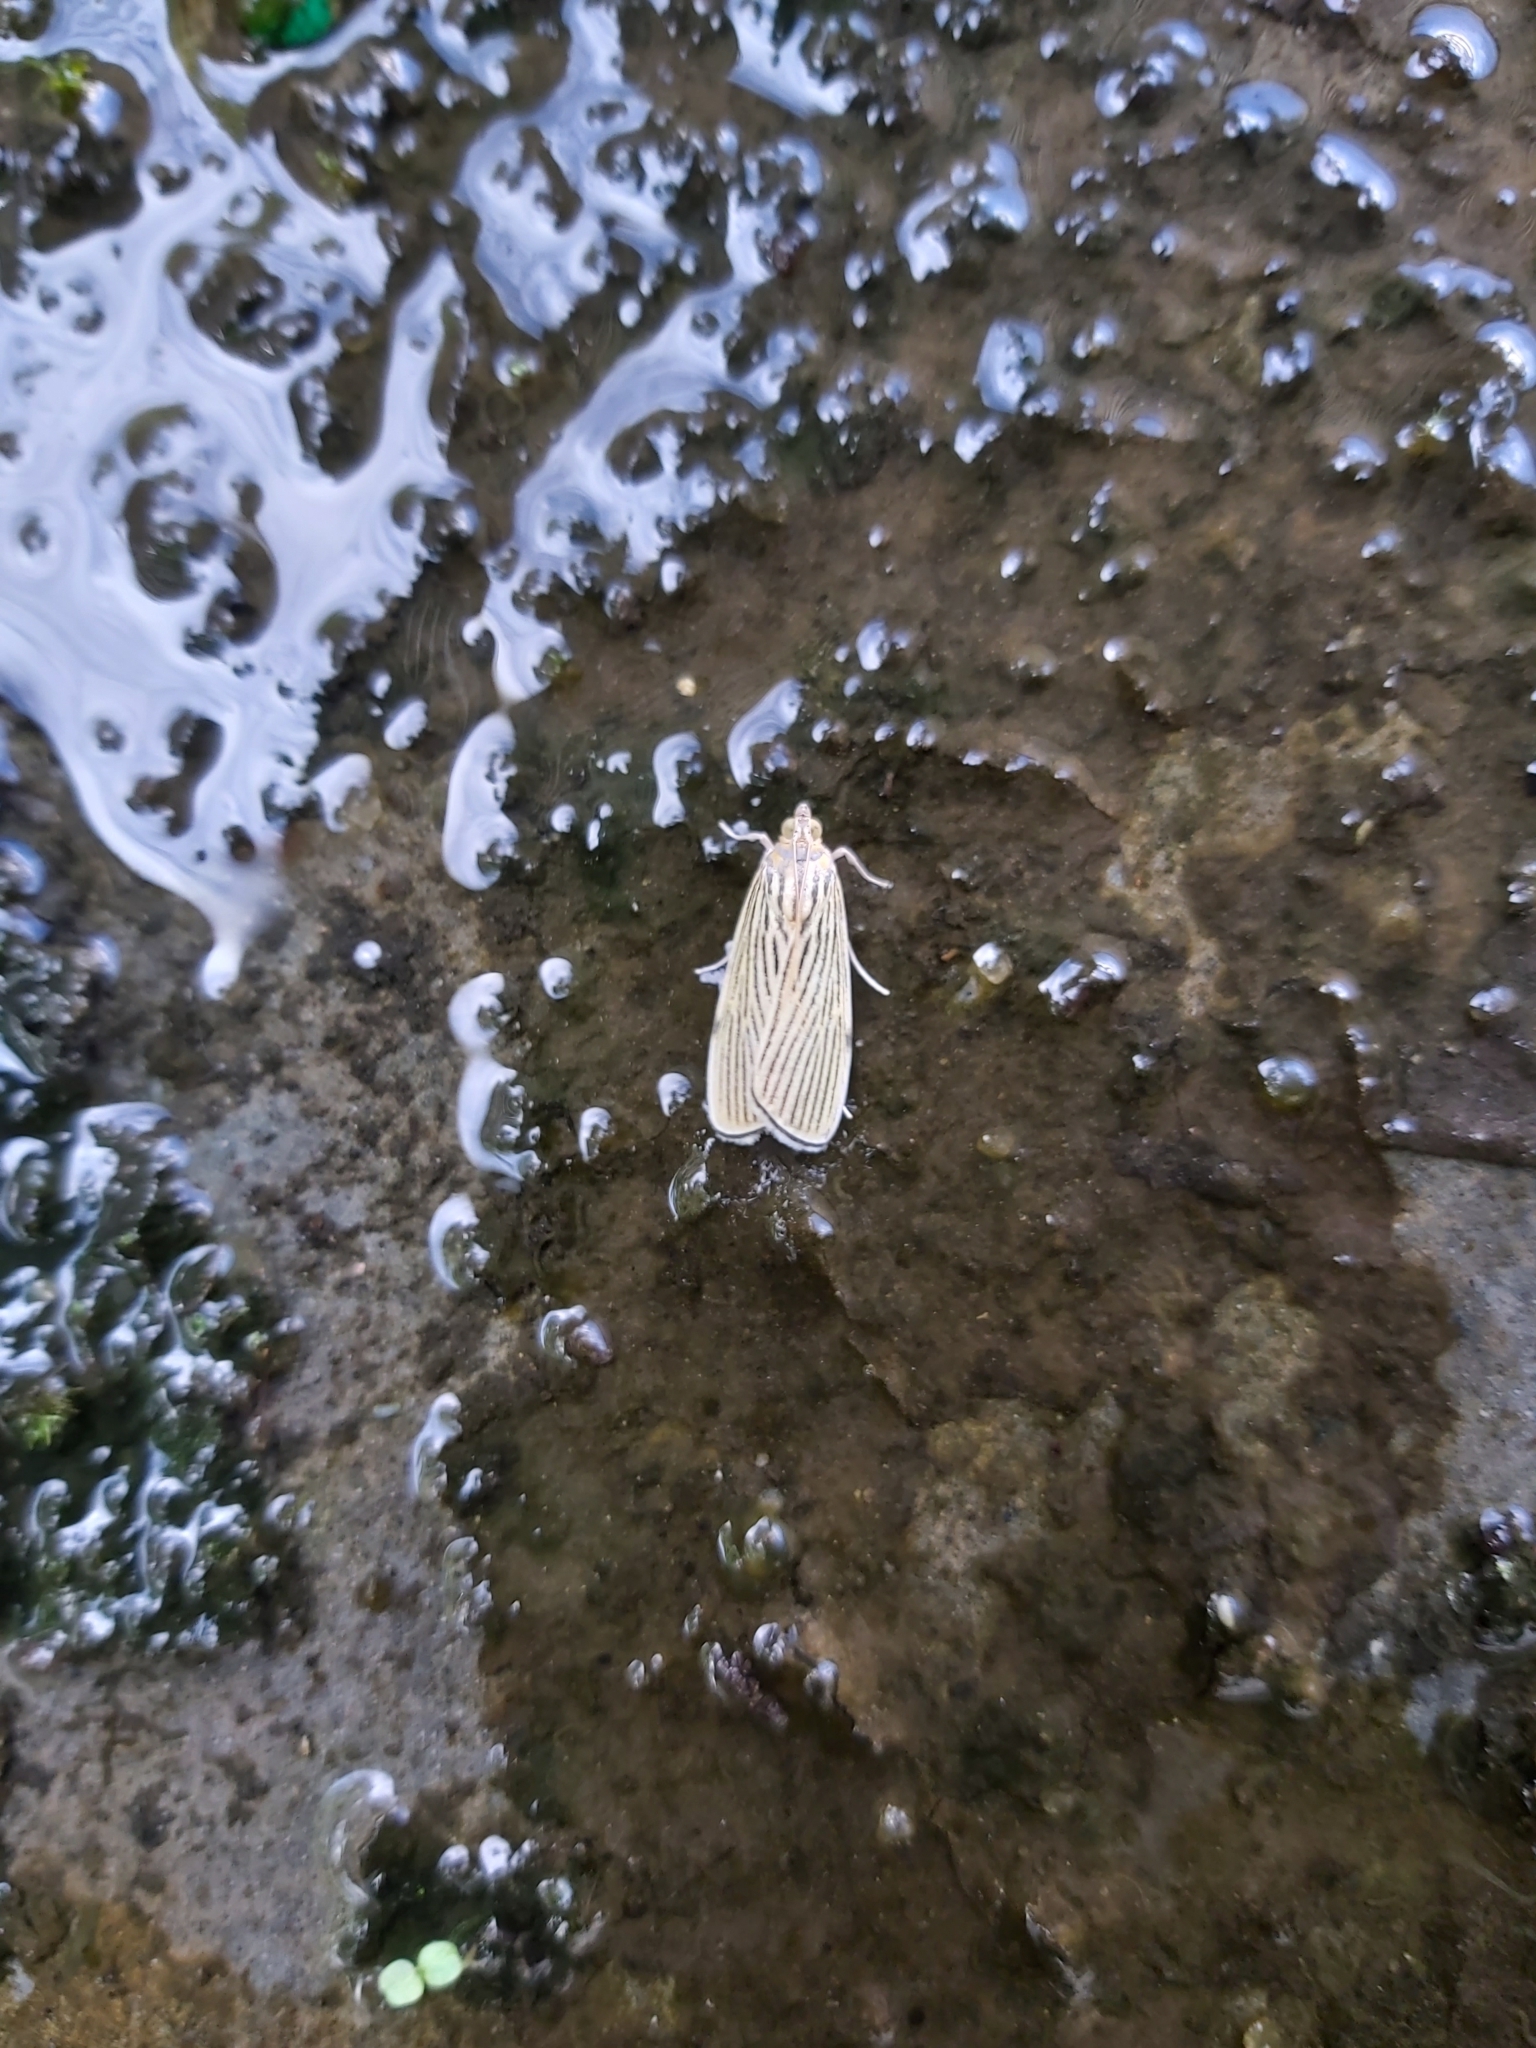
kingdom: Animalia
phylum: Arthropoda
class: Insecta
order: Lepidoptera
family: Crambidae
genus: Tyspanodes
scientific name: Tyspanodes linealis
